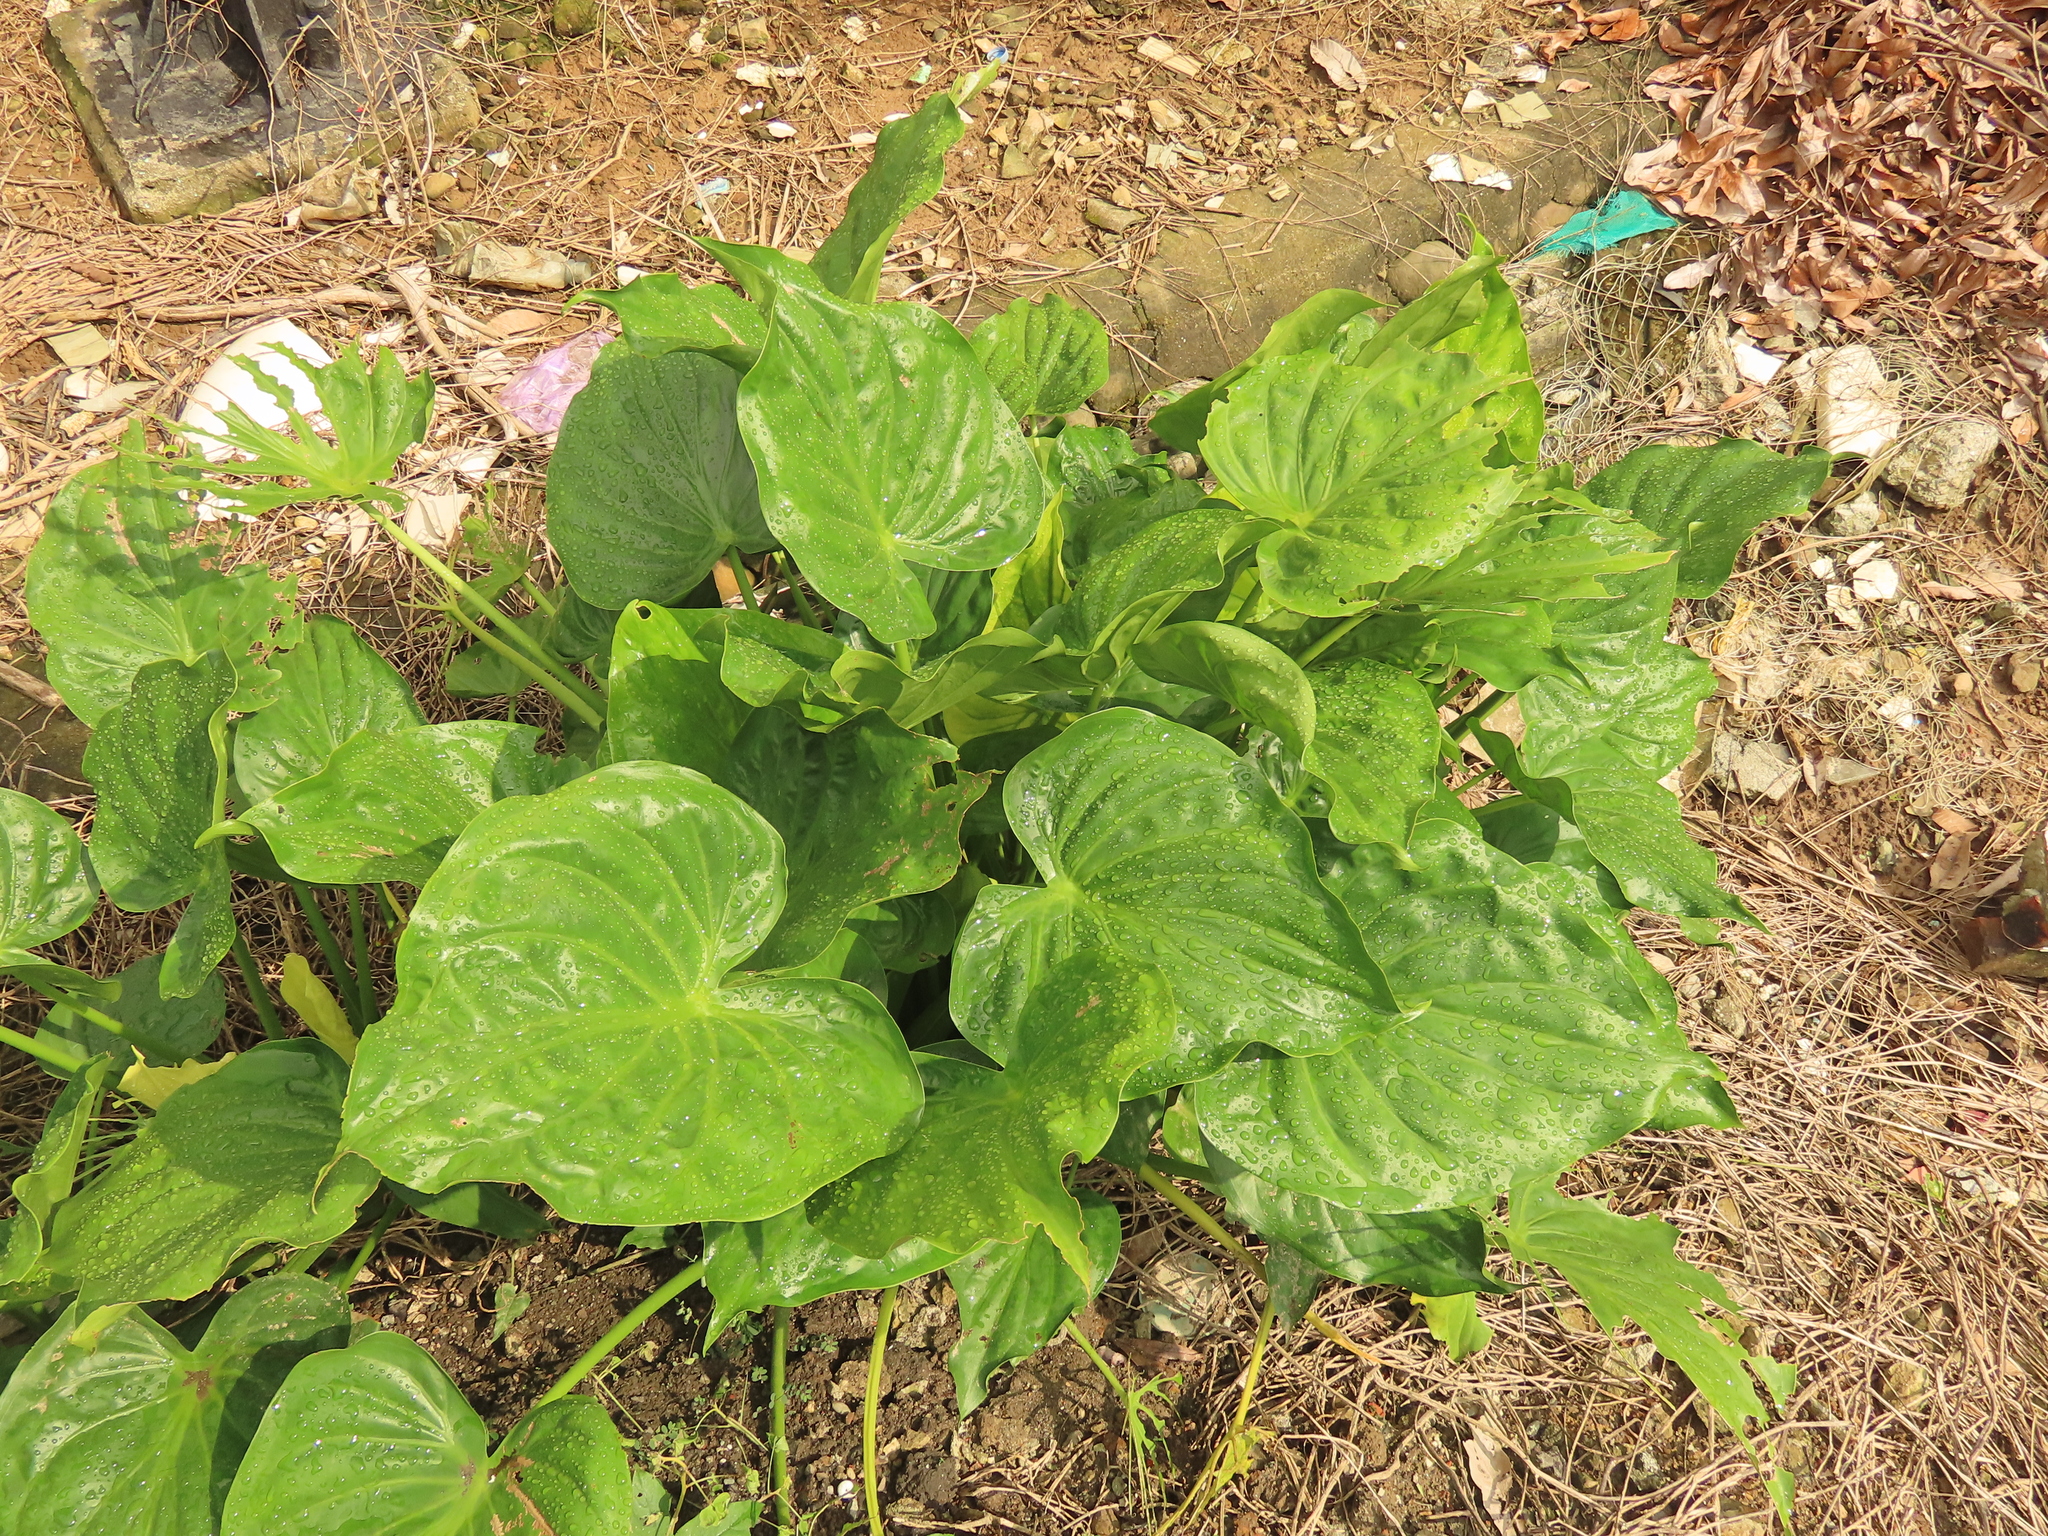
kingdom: Plantae
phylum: Tracheophyta
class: Liliopsida
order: Alismatales
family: Araceae
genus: Alocasia
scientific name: Alocasia cucullata
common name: Buddha's hand
